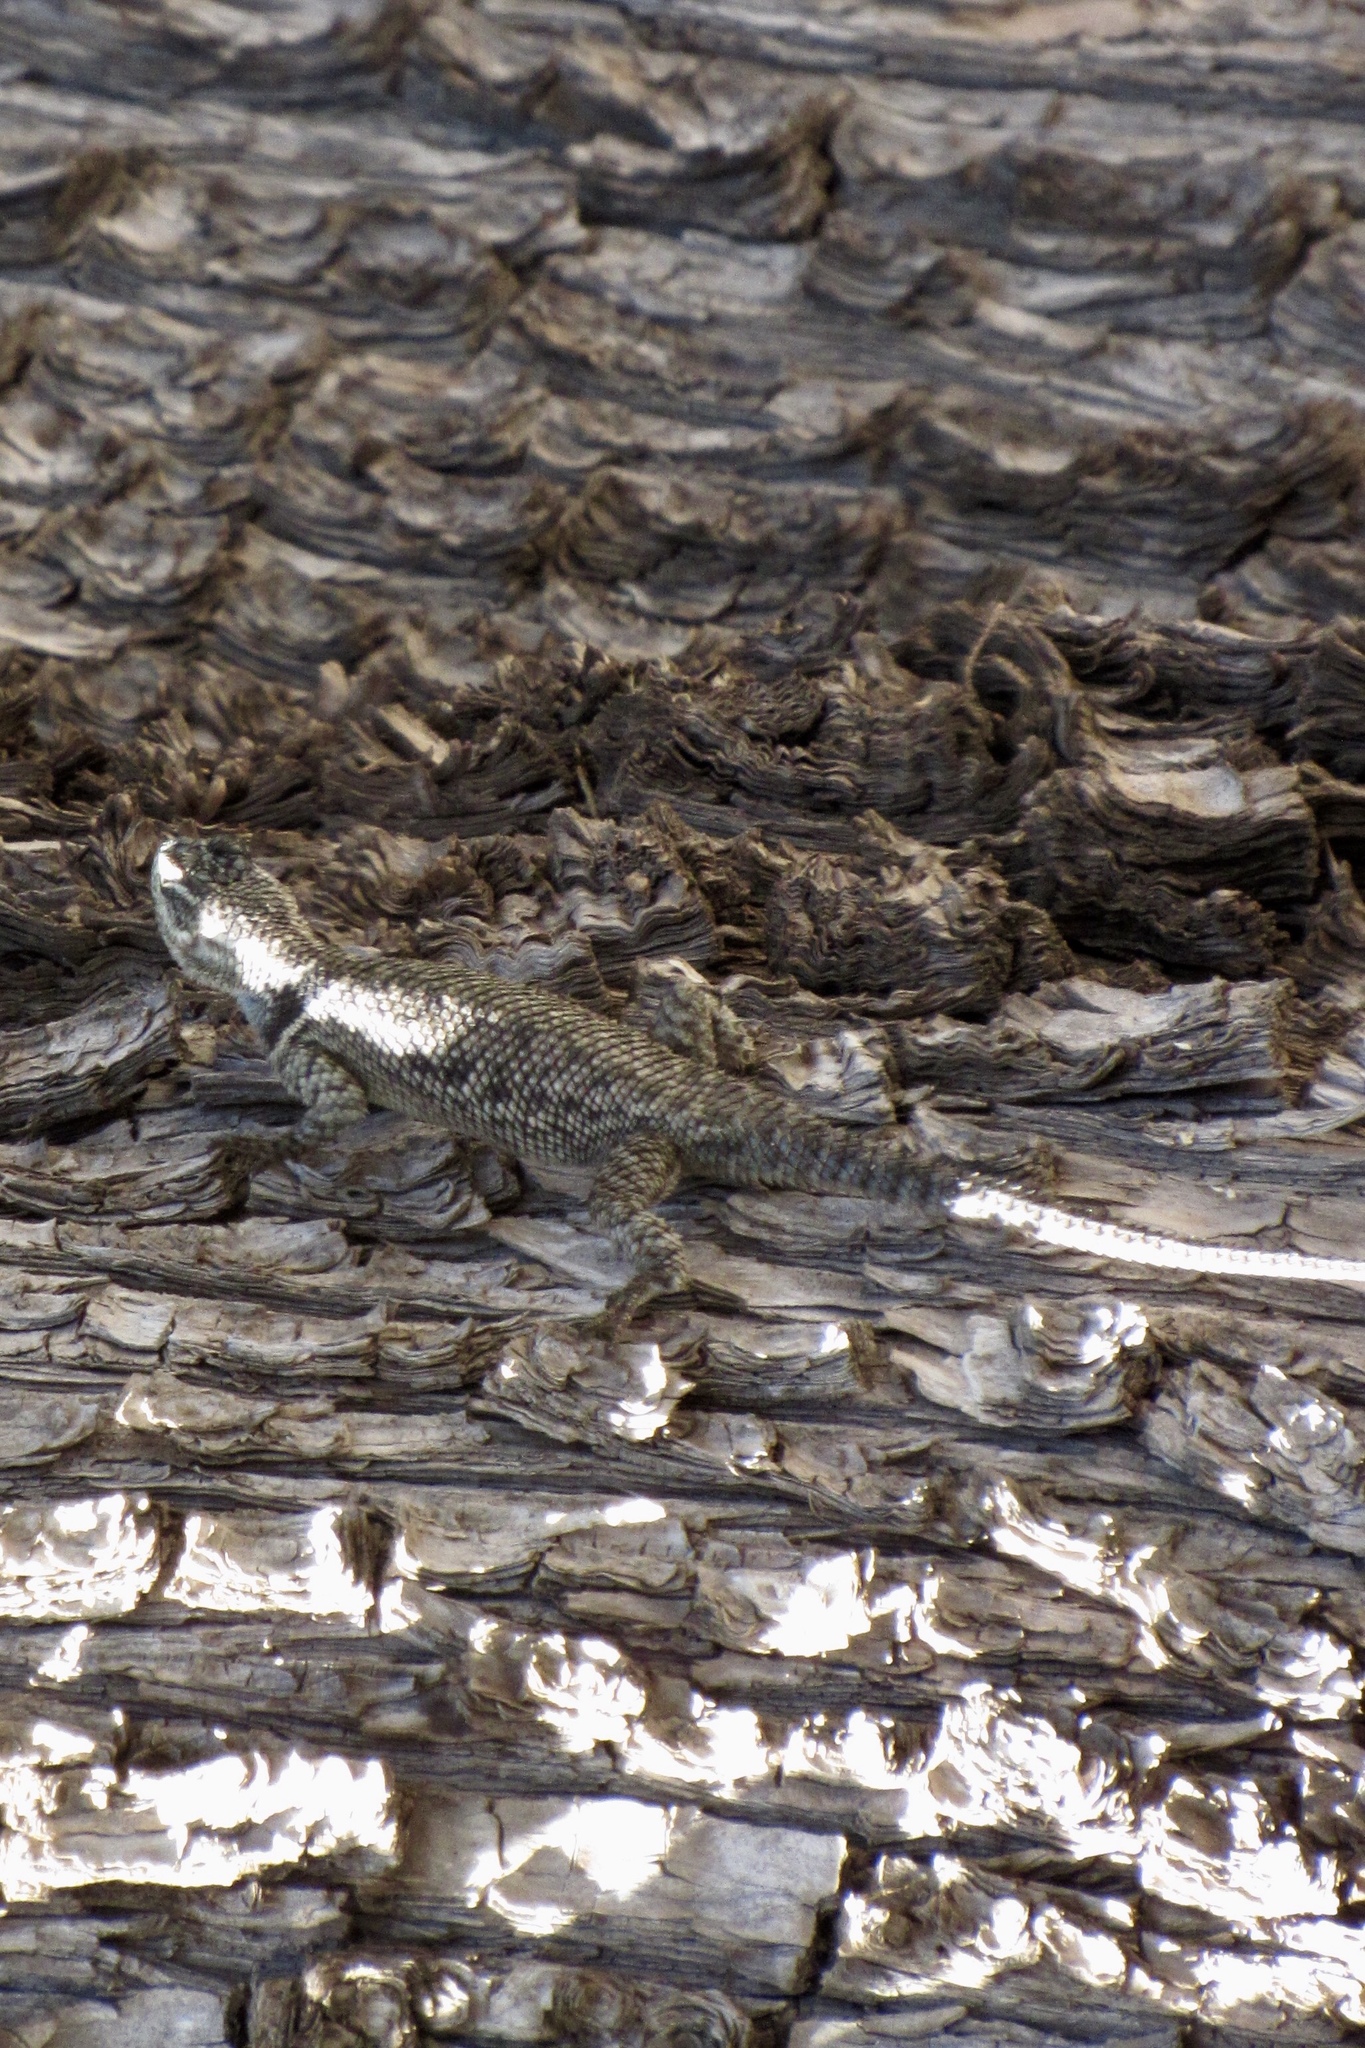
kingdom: Animalia
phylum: Chordata
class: Squamata
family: Phrynosomatidae
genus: Sceloporus
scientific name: Sceloporus clarkii
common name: Clark's spiny lizard
